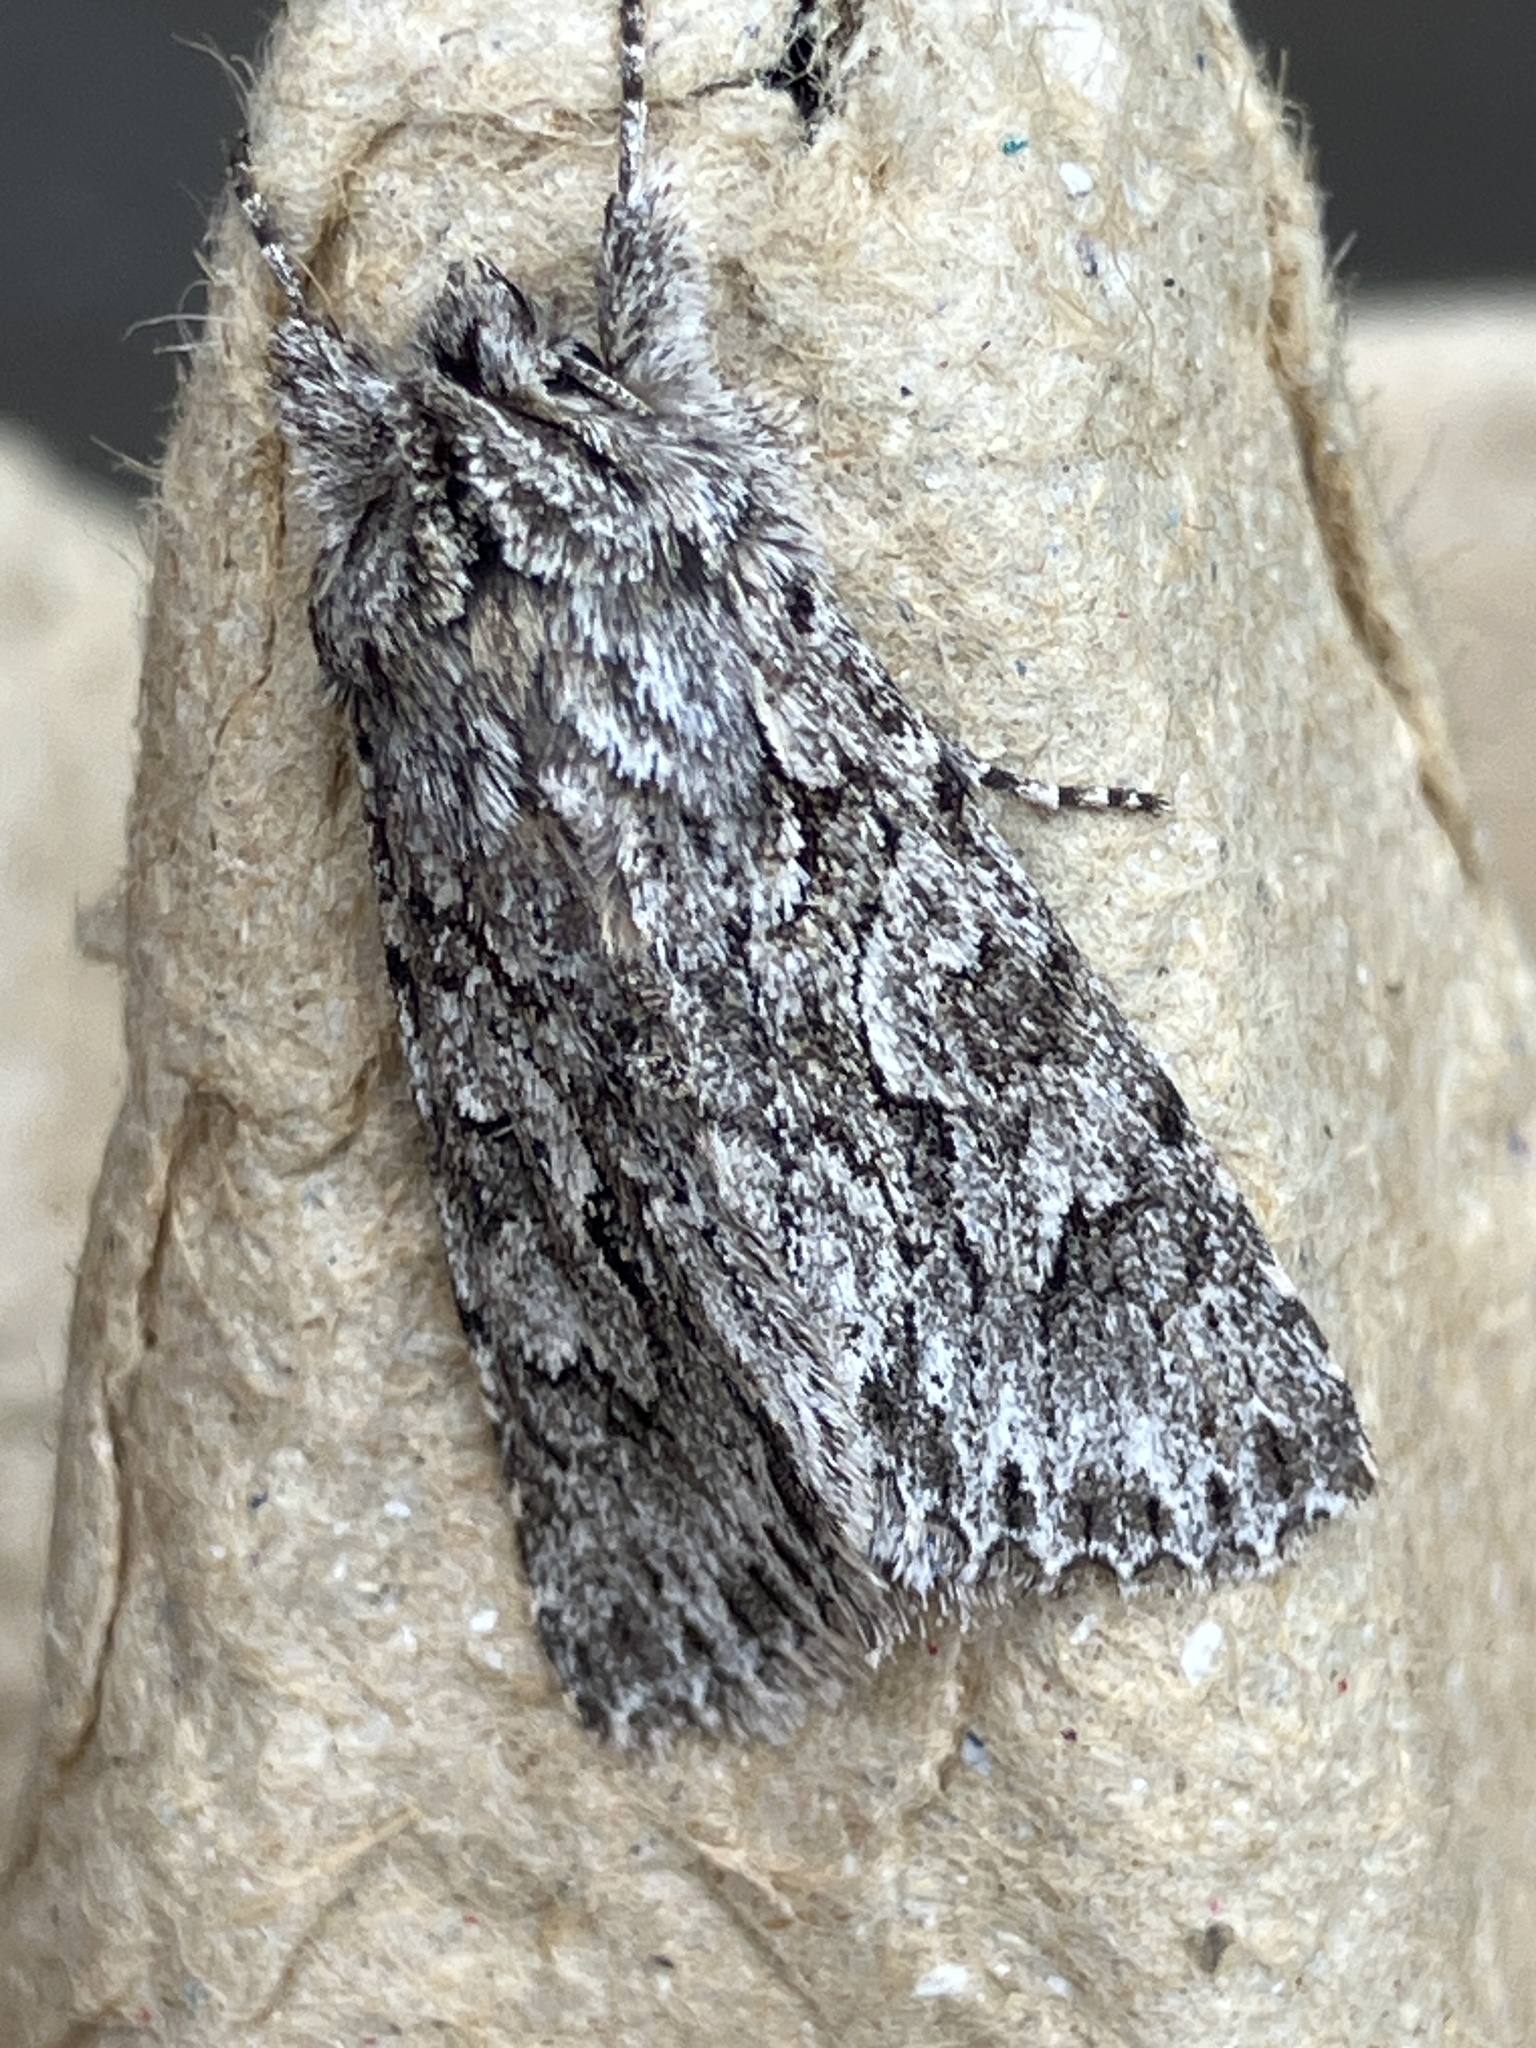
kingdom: Animalia
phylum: Arthropoda
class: Insecta
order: Lepidoptera
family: Noctuidae
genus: Xylocampa
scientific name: Xylocampa areola
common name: Early grey
